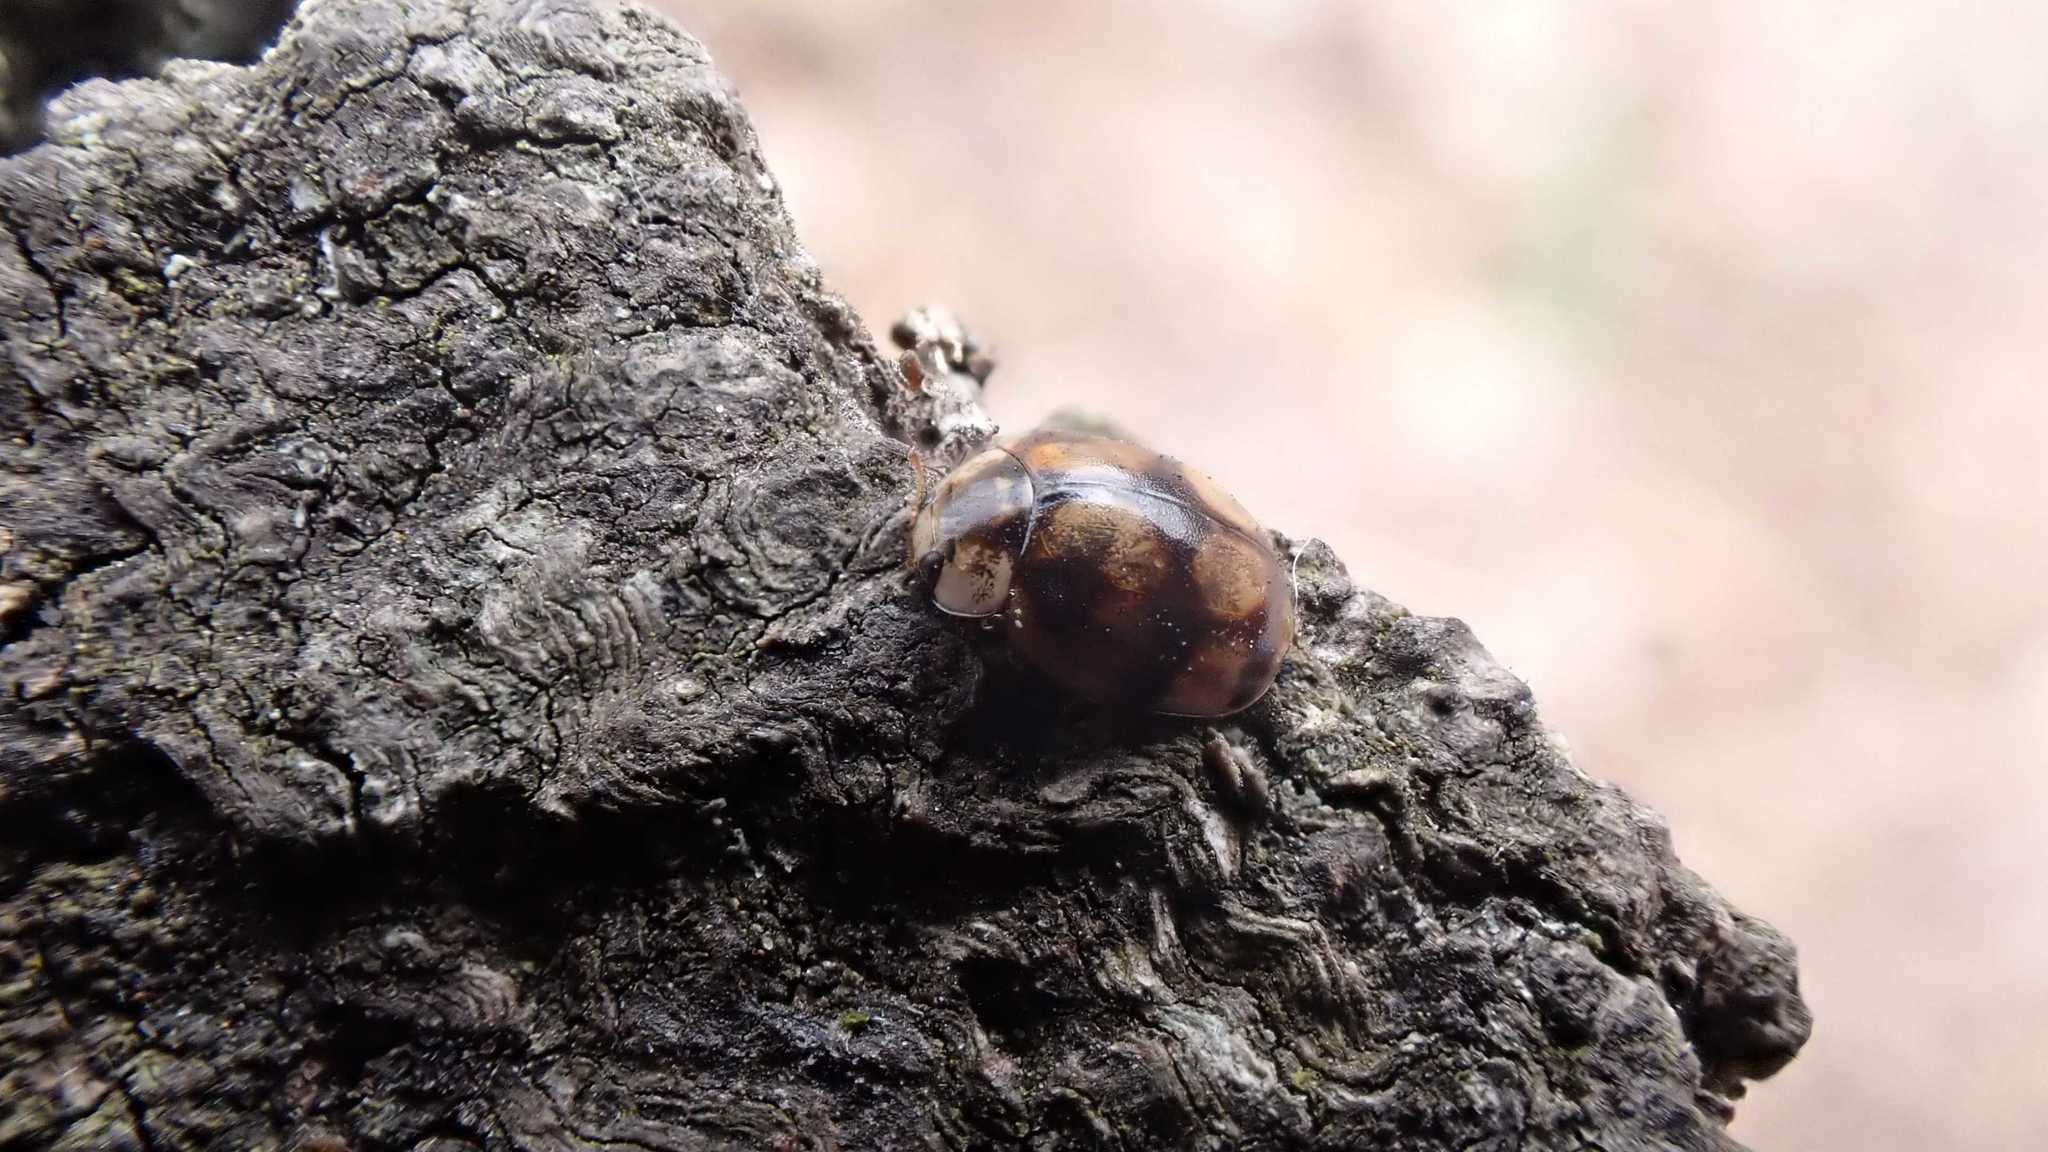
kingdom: Animalia
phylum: Arthropoda
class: Insecta
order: Coleoptera
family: Coccinellidae
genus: Adalia
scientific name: Adalia decempunctata
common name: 10-spot ladybird
